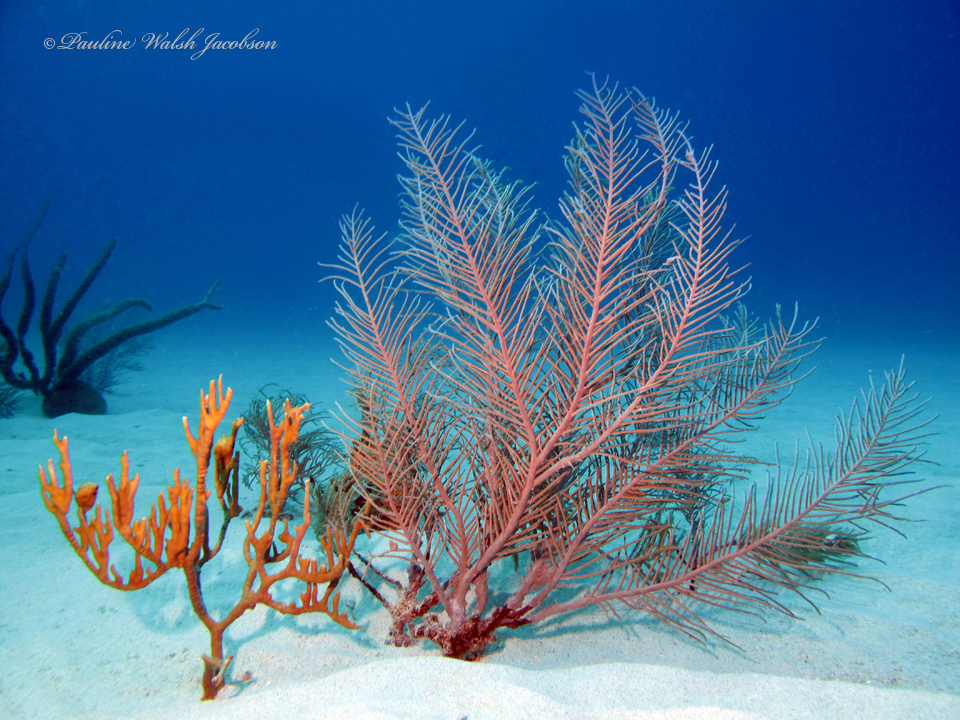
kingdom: Animalia
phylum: Cnidaria
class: Hydrozoa
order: Anthoathecata
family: Milleporidae
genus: Millepora
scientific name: Millepora alcicornis
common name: Branching fire coral
